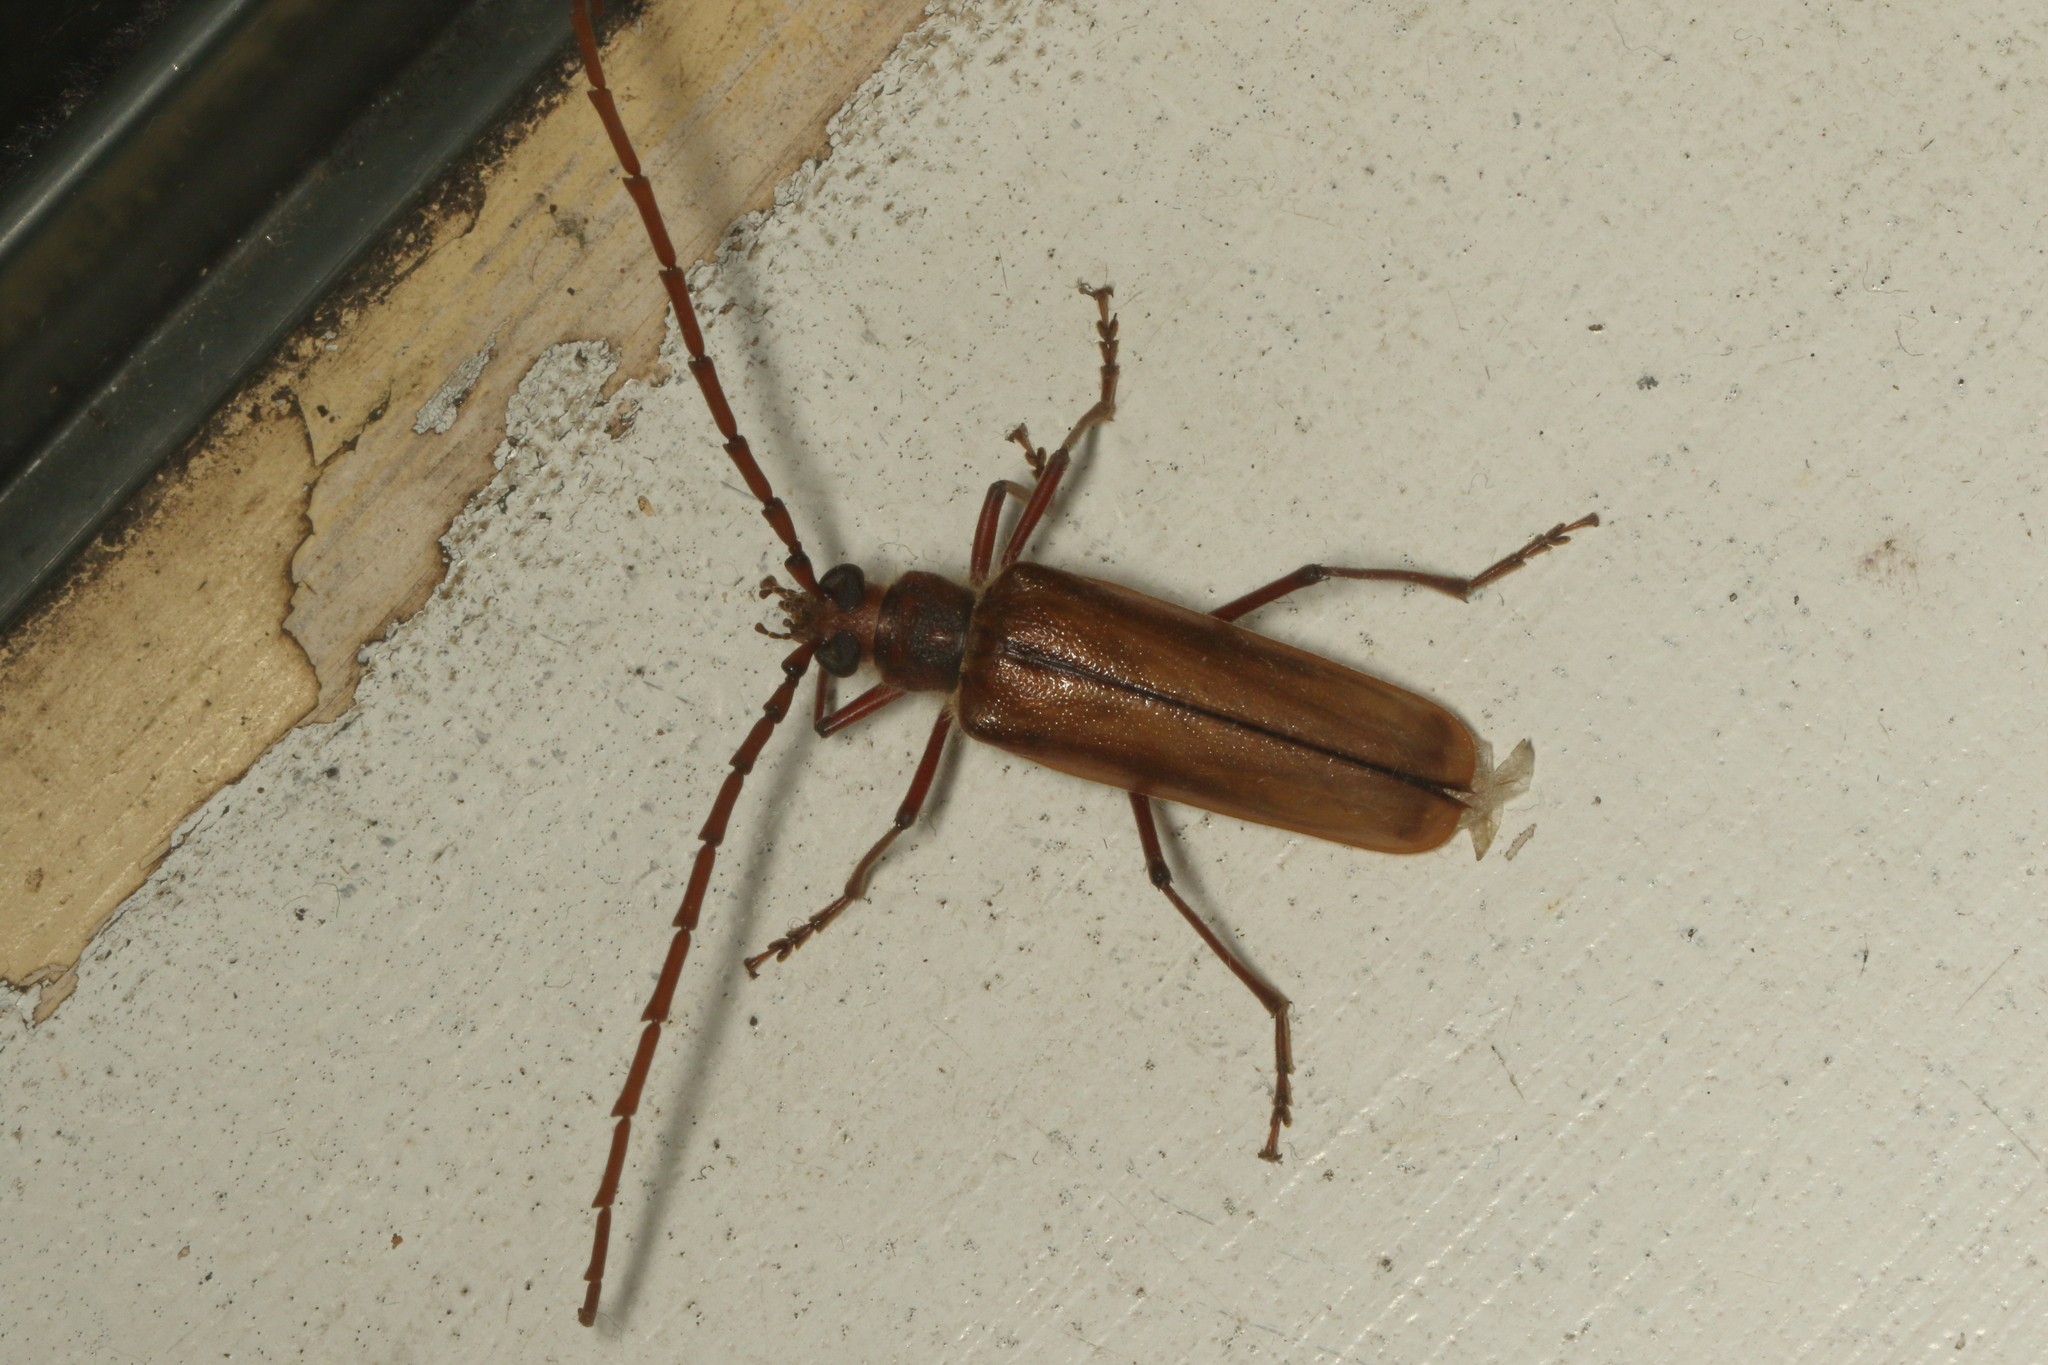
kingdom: Animalia
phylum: Arthropoda
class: Insecta
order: Coleoptera
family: Cerambycidae
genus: Ochrocydus
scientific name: Ochrocydus huttoni
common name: Kanuka longhorn
